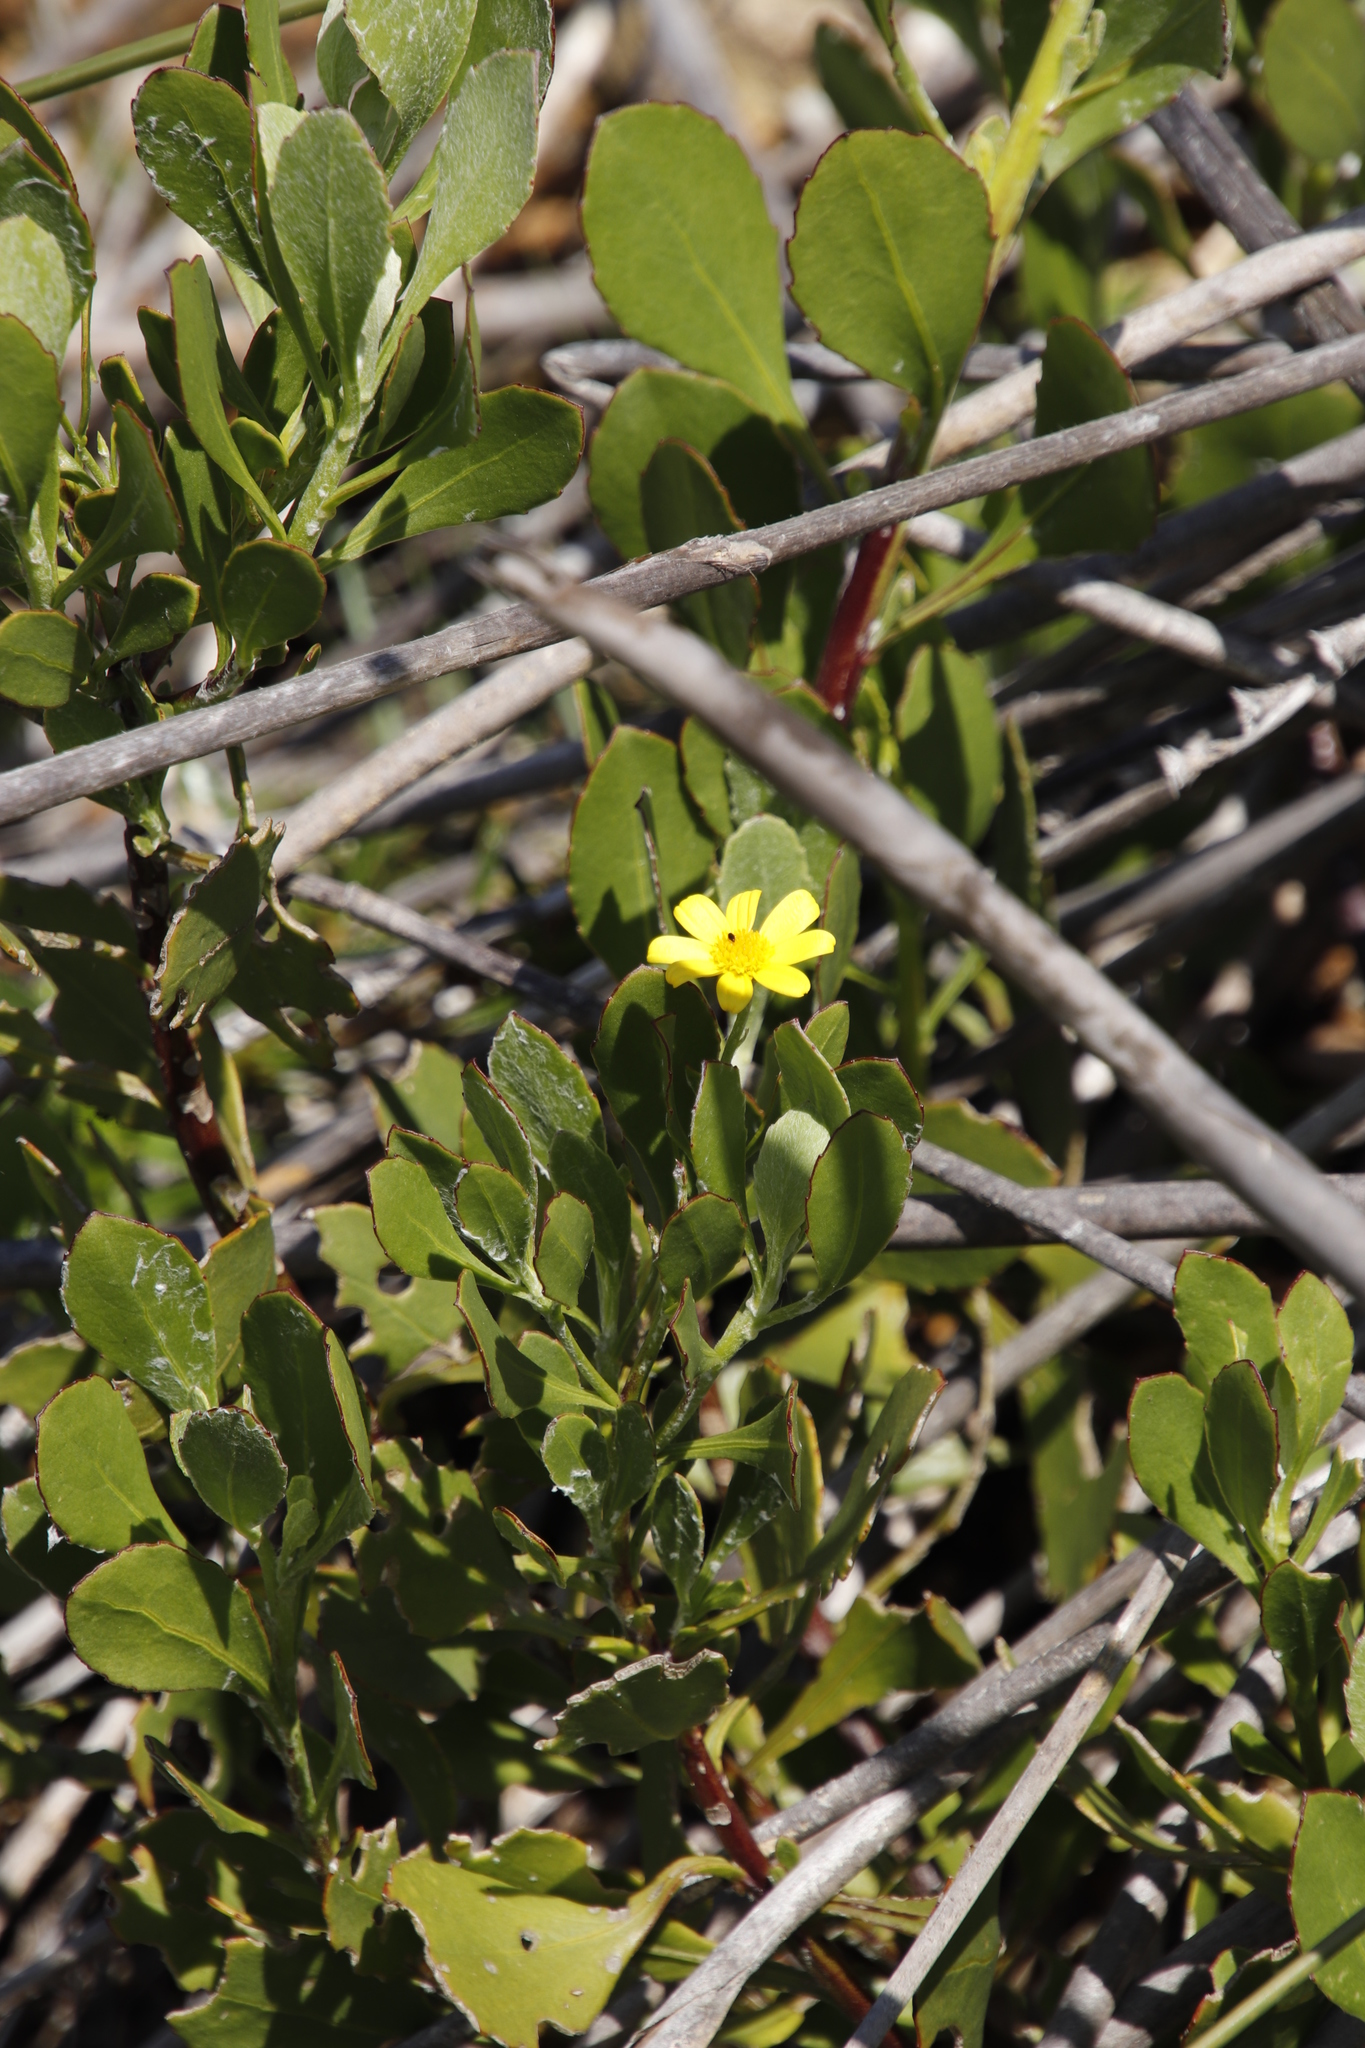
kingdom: Plantae
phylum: Tracheophyta
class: Magnoliopsida
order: Asterales
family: Asteraceae
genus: Osteospermum
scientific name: Osteospermum moniliferum
